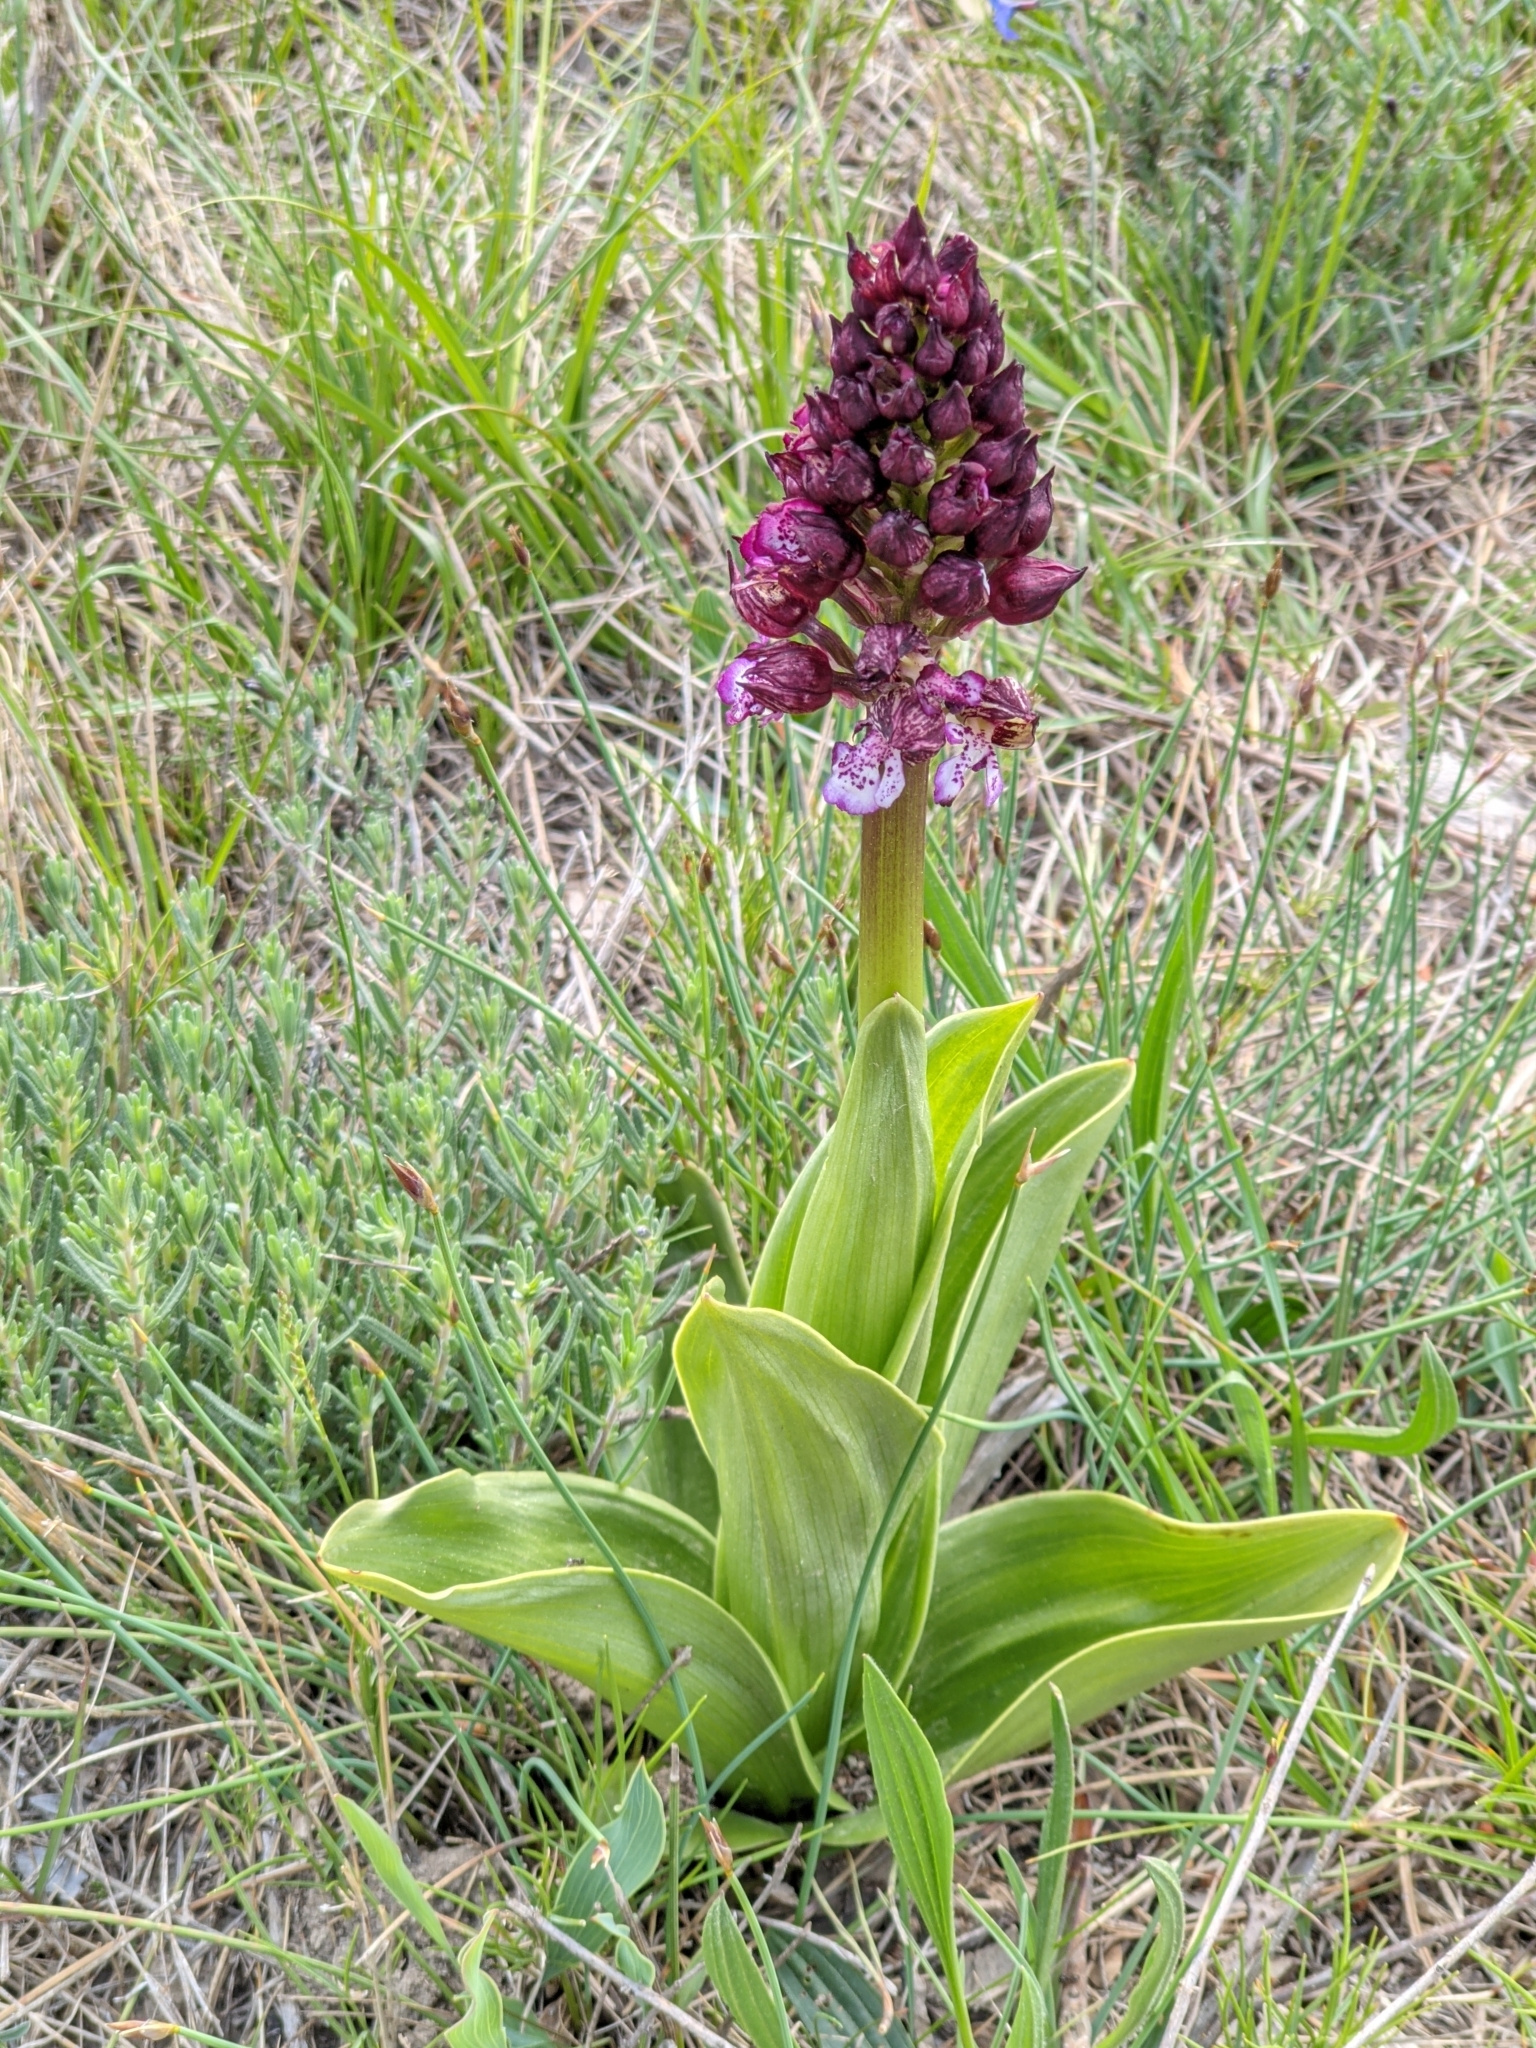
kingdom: Plantae
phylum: Tracheophyta
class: Liliopsida
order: Asparagales
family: Orchidaceae
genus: Orchis
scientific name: Orchis purpurea
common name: Lady orchid
